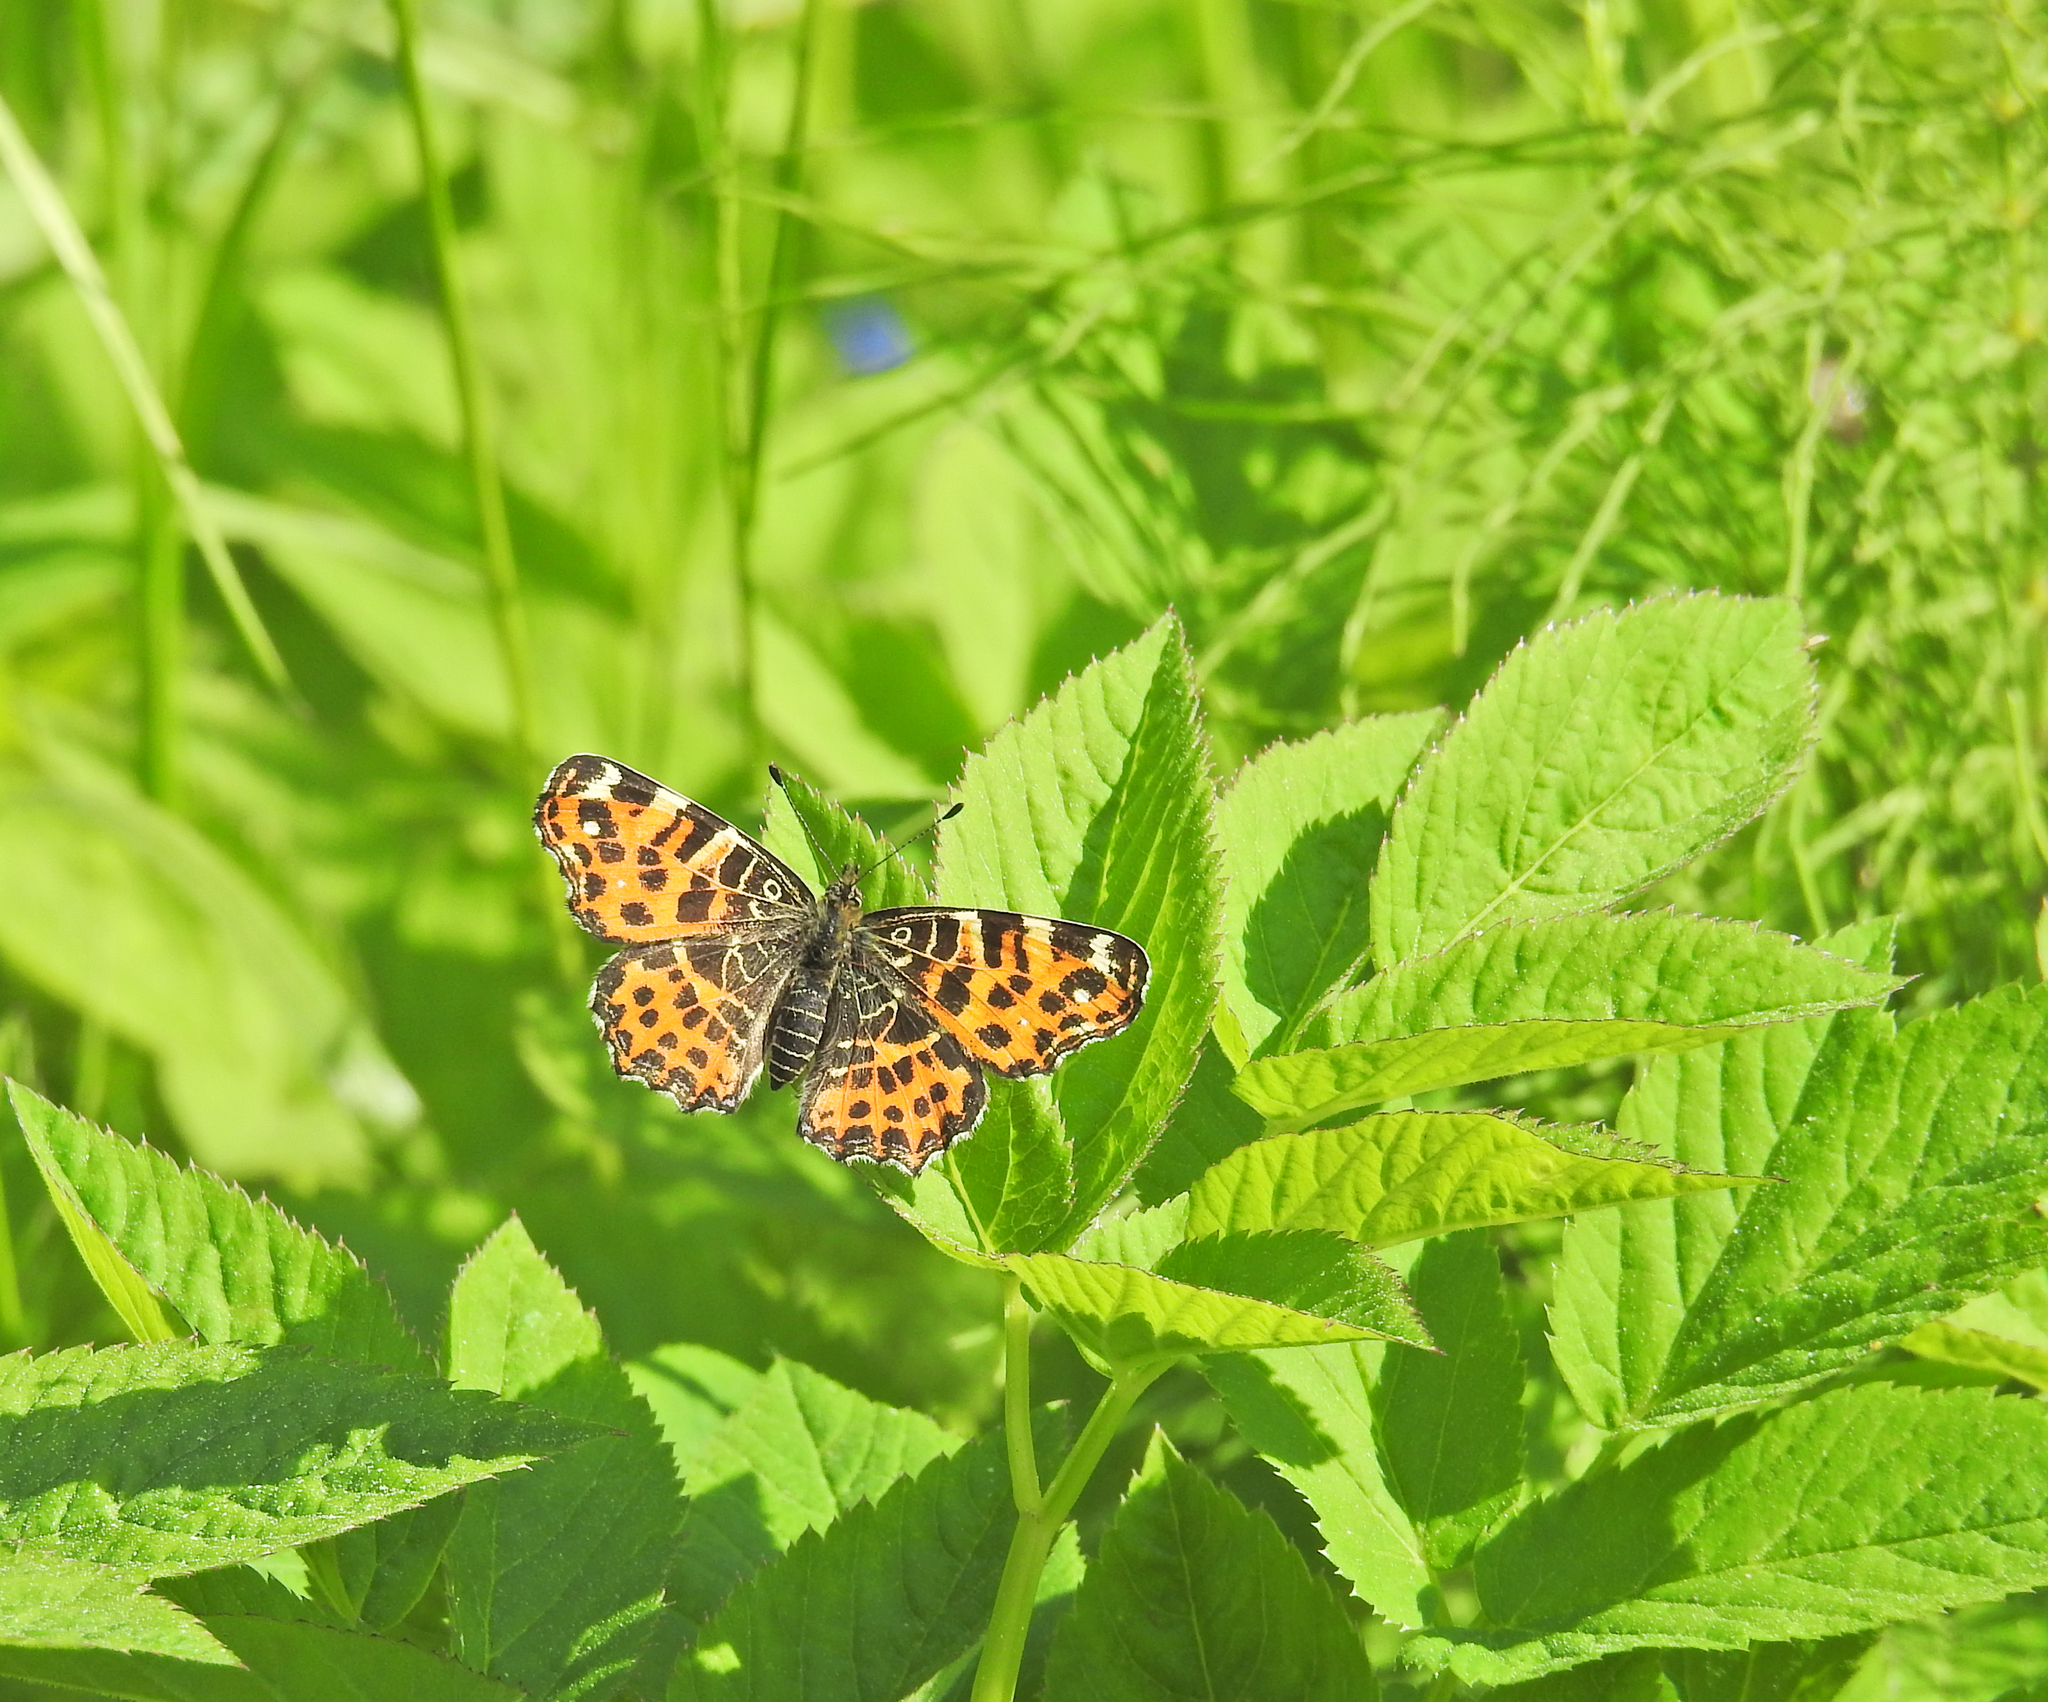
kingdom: Animalia
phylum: Arthropoda
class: Insecta
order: Lepidoptera
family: Nymphalidae
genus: Araschnia
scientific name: Araschnia levana
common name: Map butterfly
